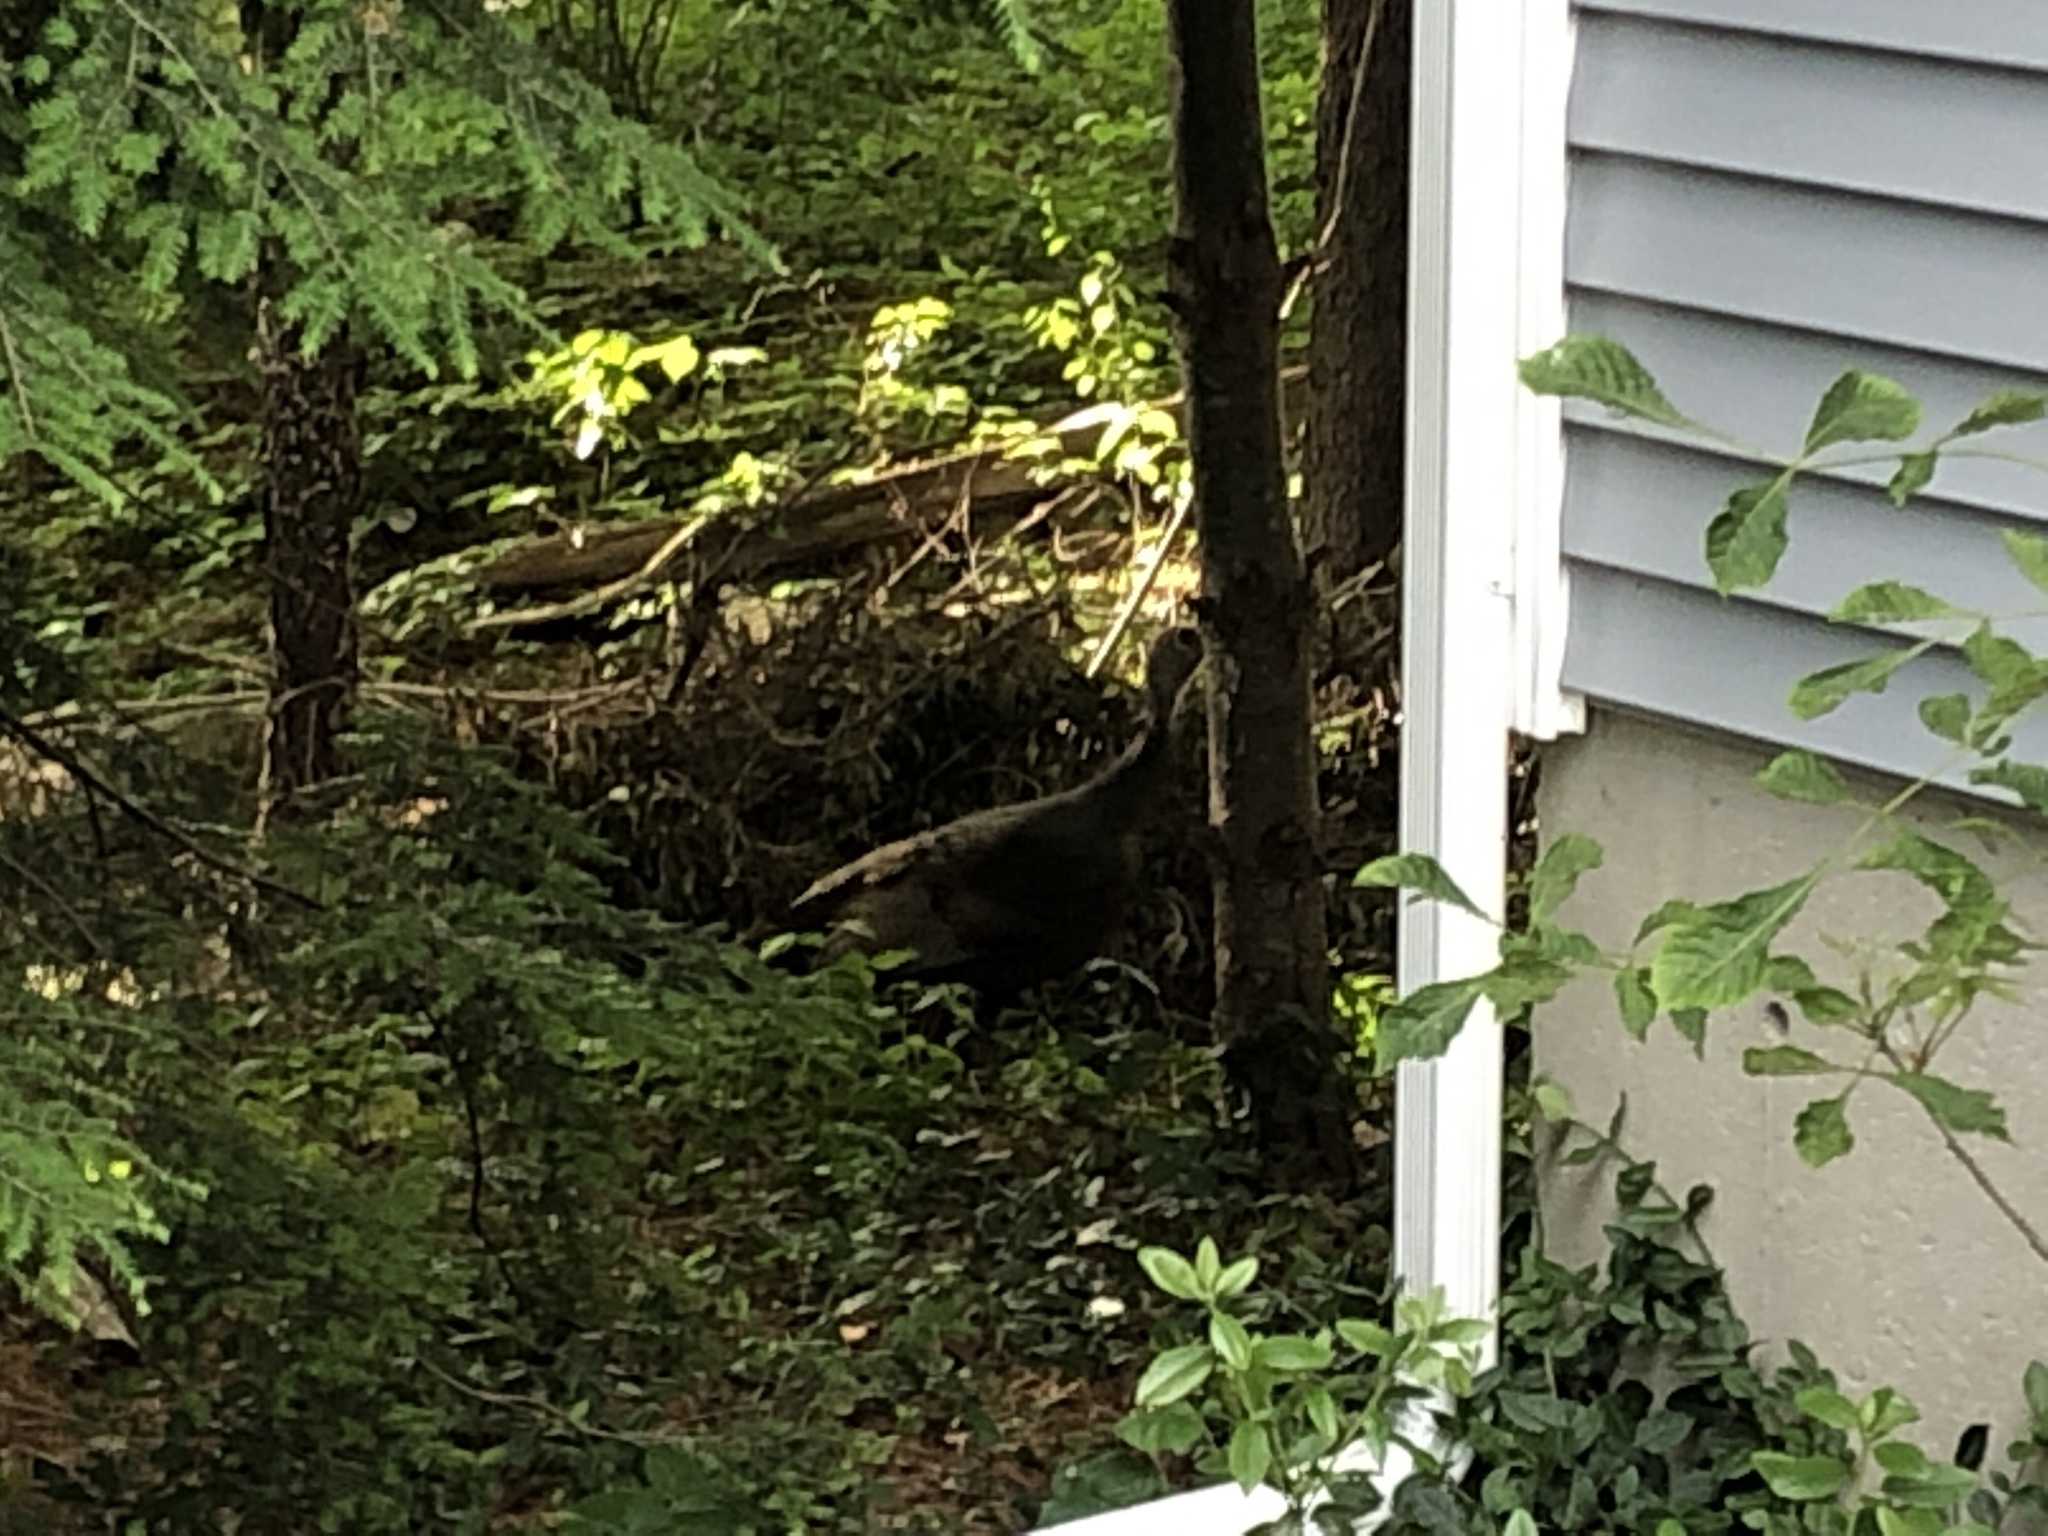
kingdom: Animalia
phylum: Chordata
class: Aves
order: Galliformes
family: Phasianidae
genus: Meleagris
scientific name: Meleagris gallopavo
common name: Wild turkey
